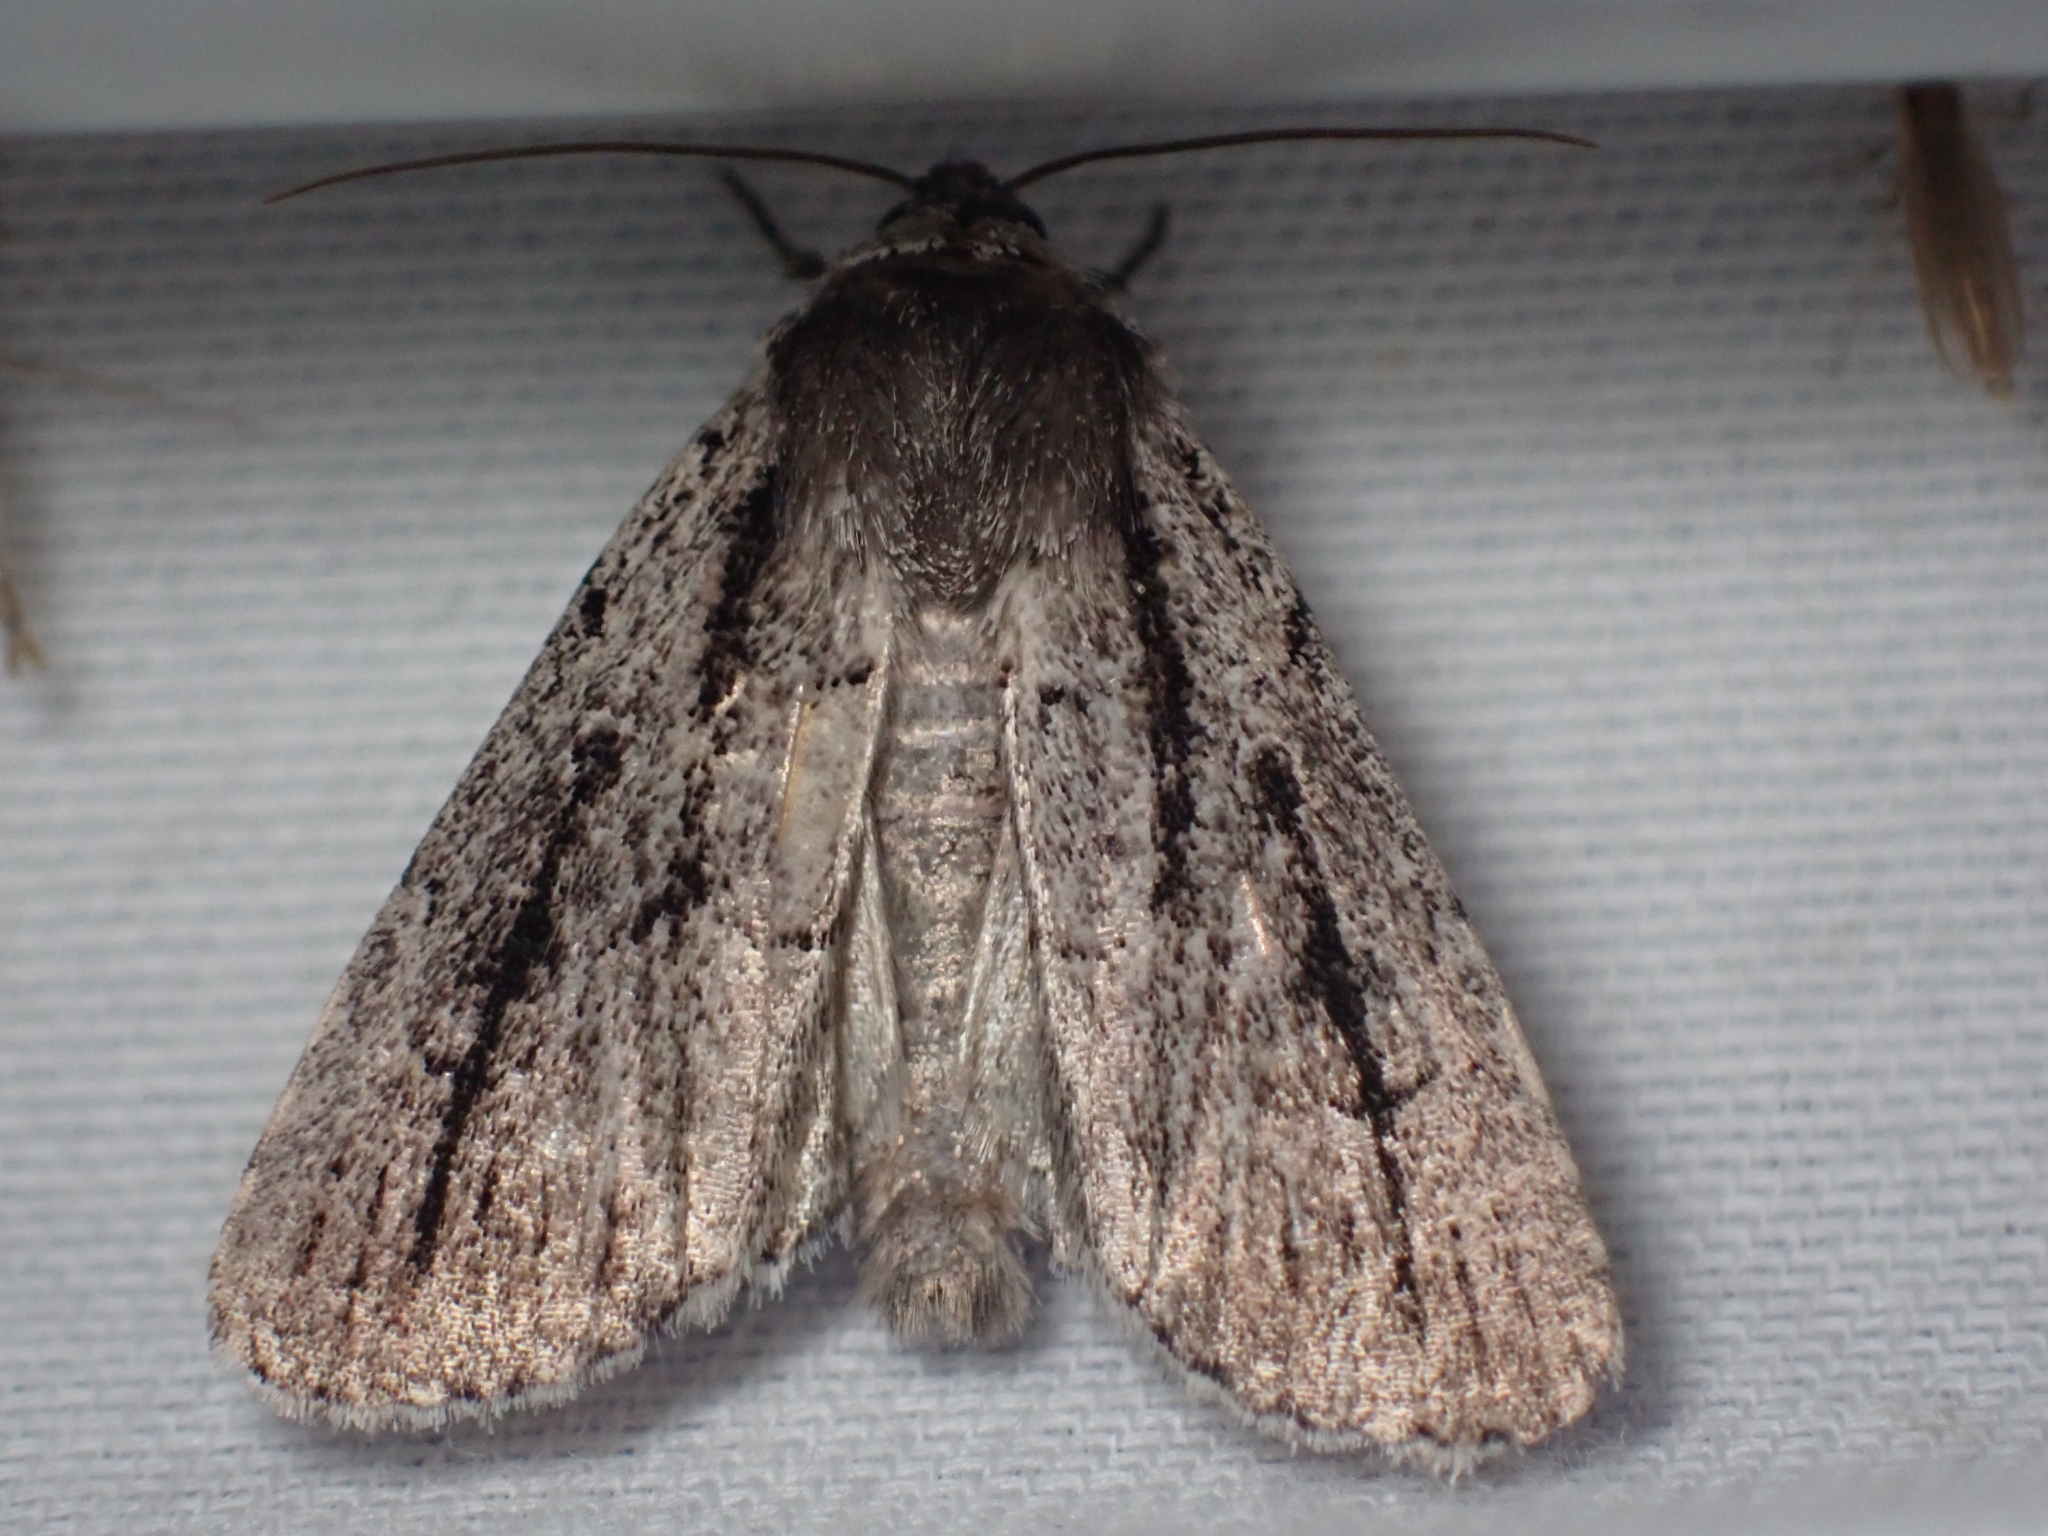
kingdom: Animalia
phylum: Arthropoda
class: Insecta
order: Lepidoptera
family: Noctuidae
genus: Sympistis
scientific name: Sympistis dinalda
